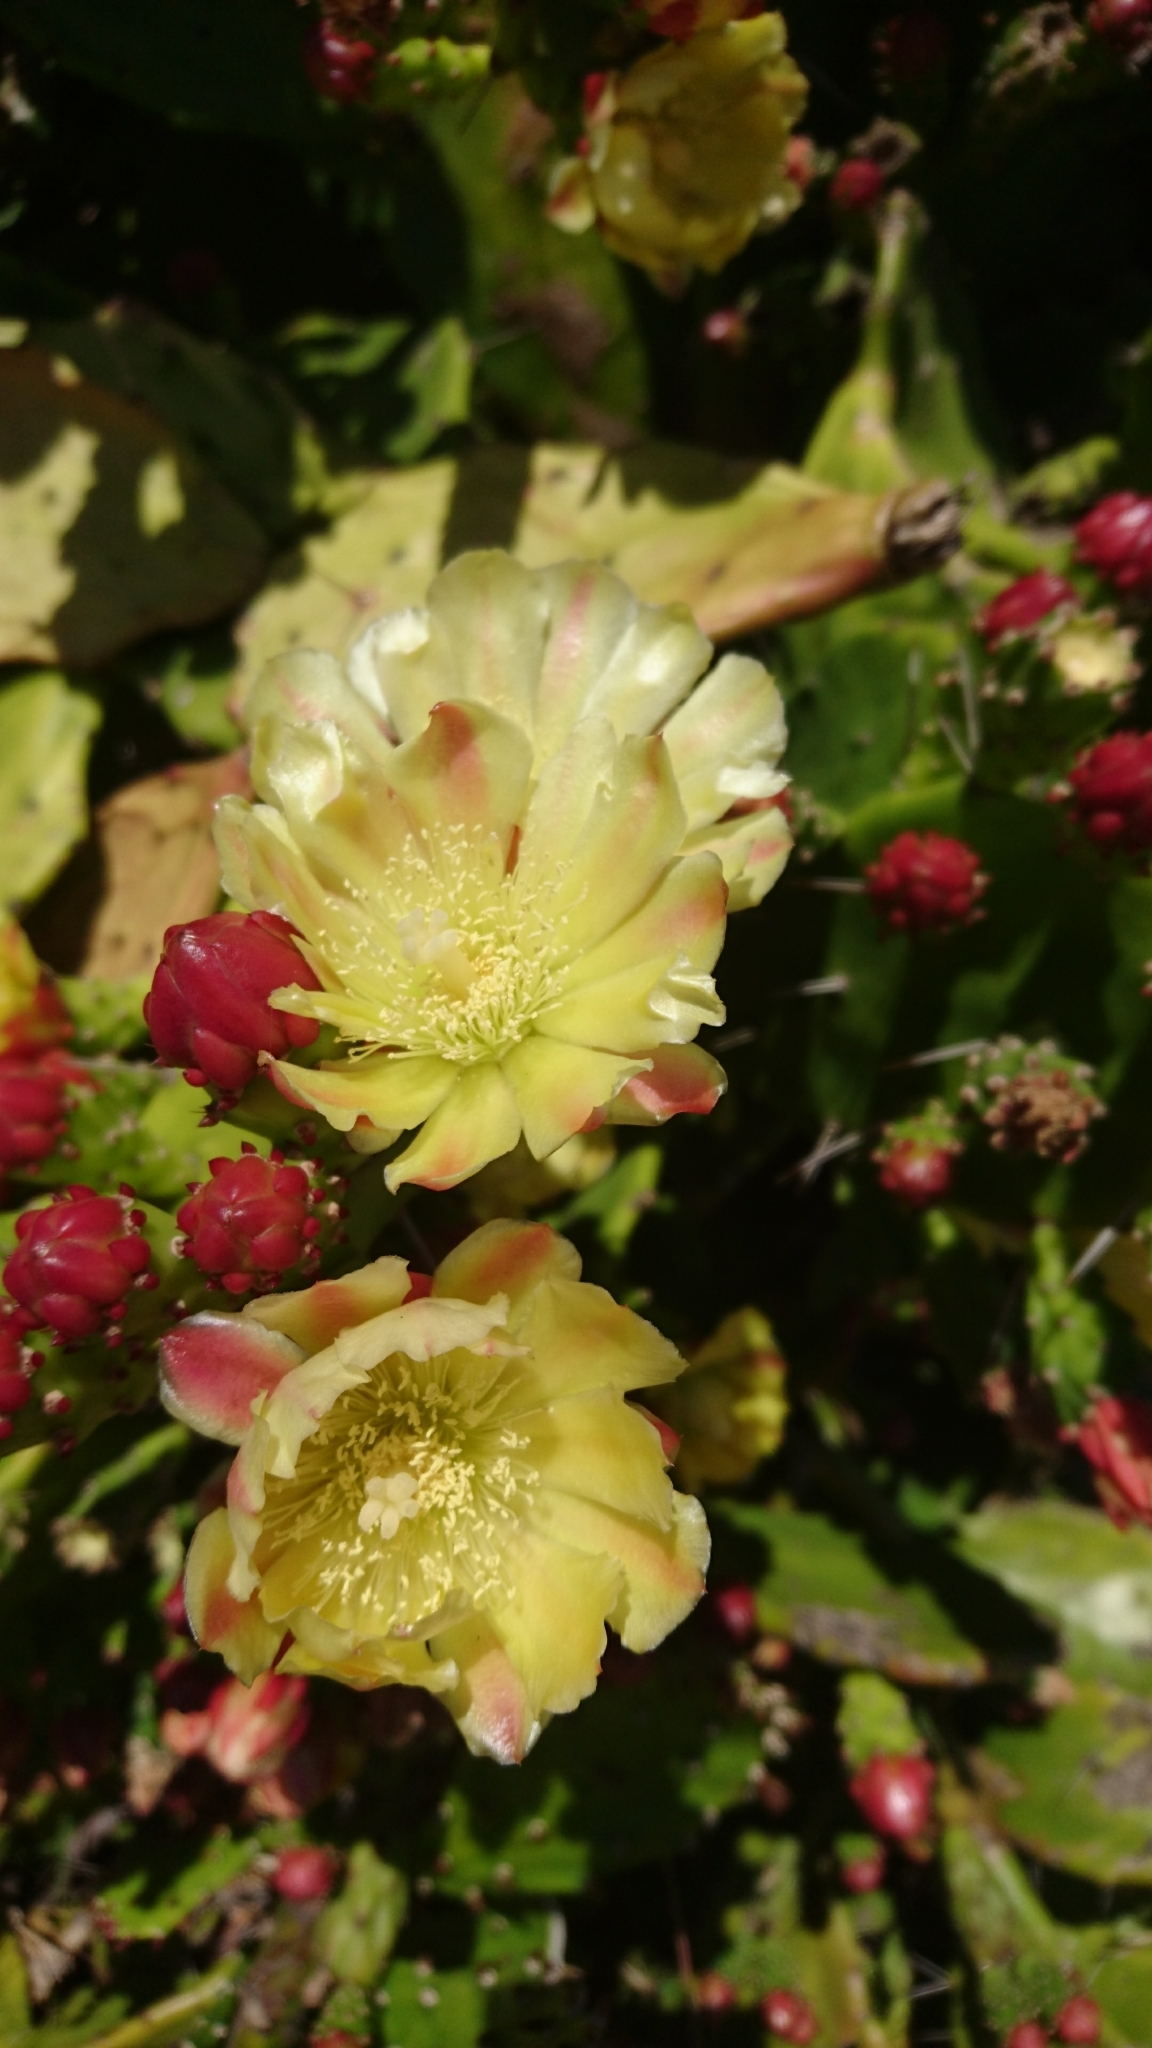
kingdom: Plantae
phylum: Tracheophyta
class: Magnoliopsida
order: Caryophyllales
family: Cactaceae
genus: Opuntia
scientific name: Opuntia monacantha
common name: Common pricklypear
